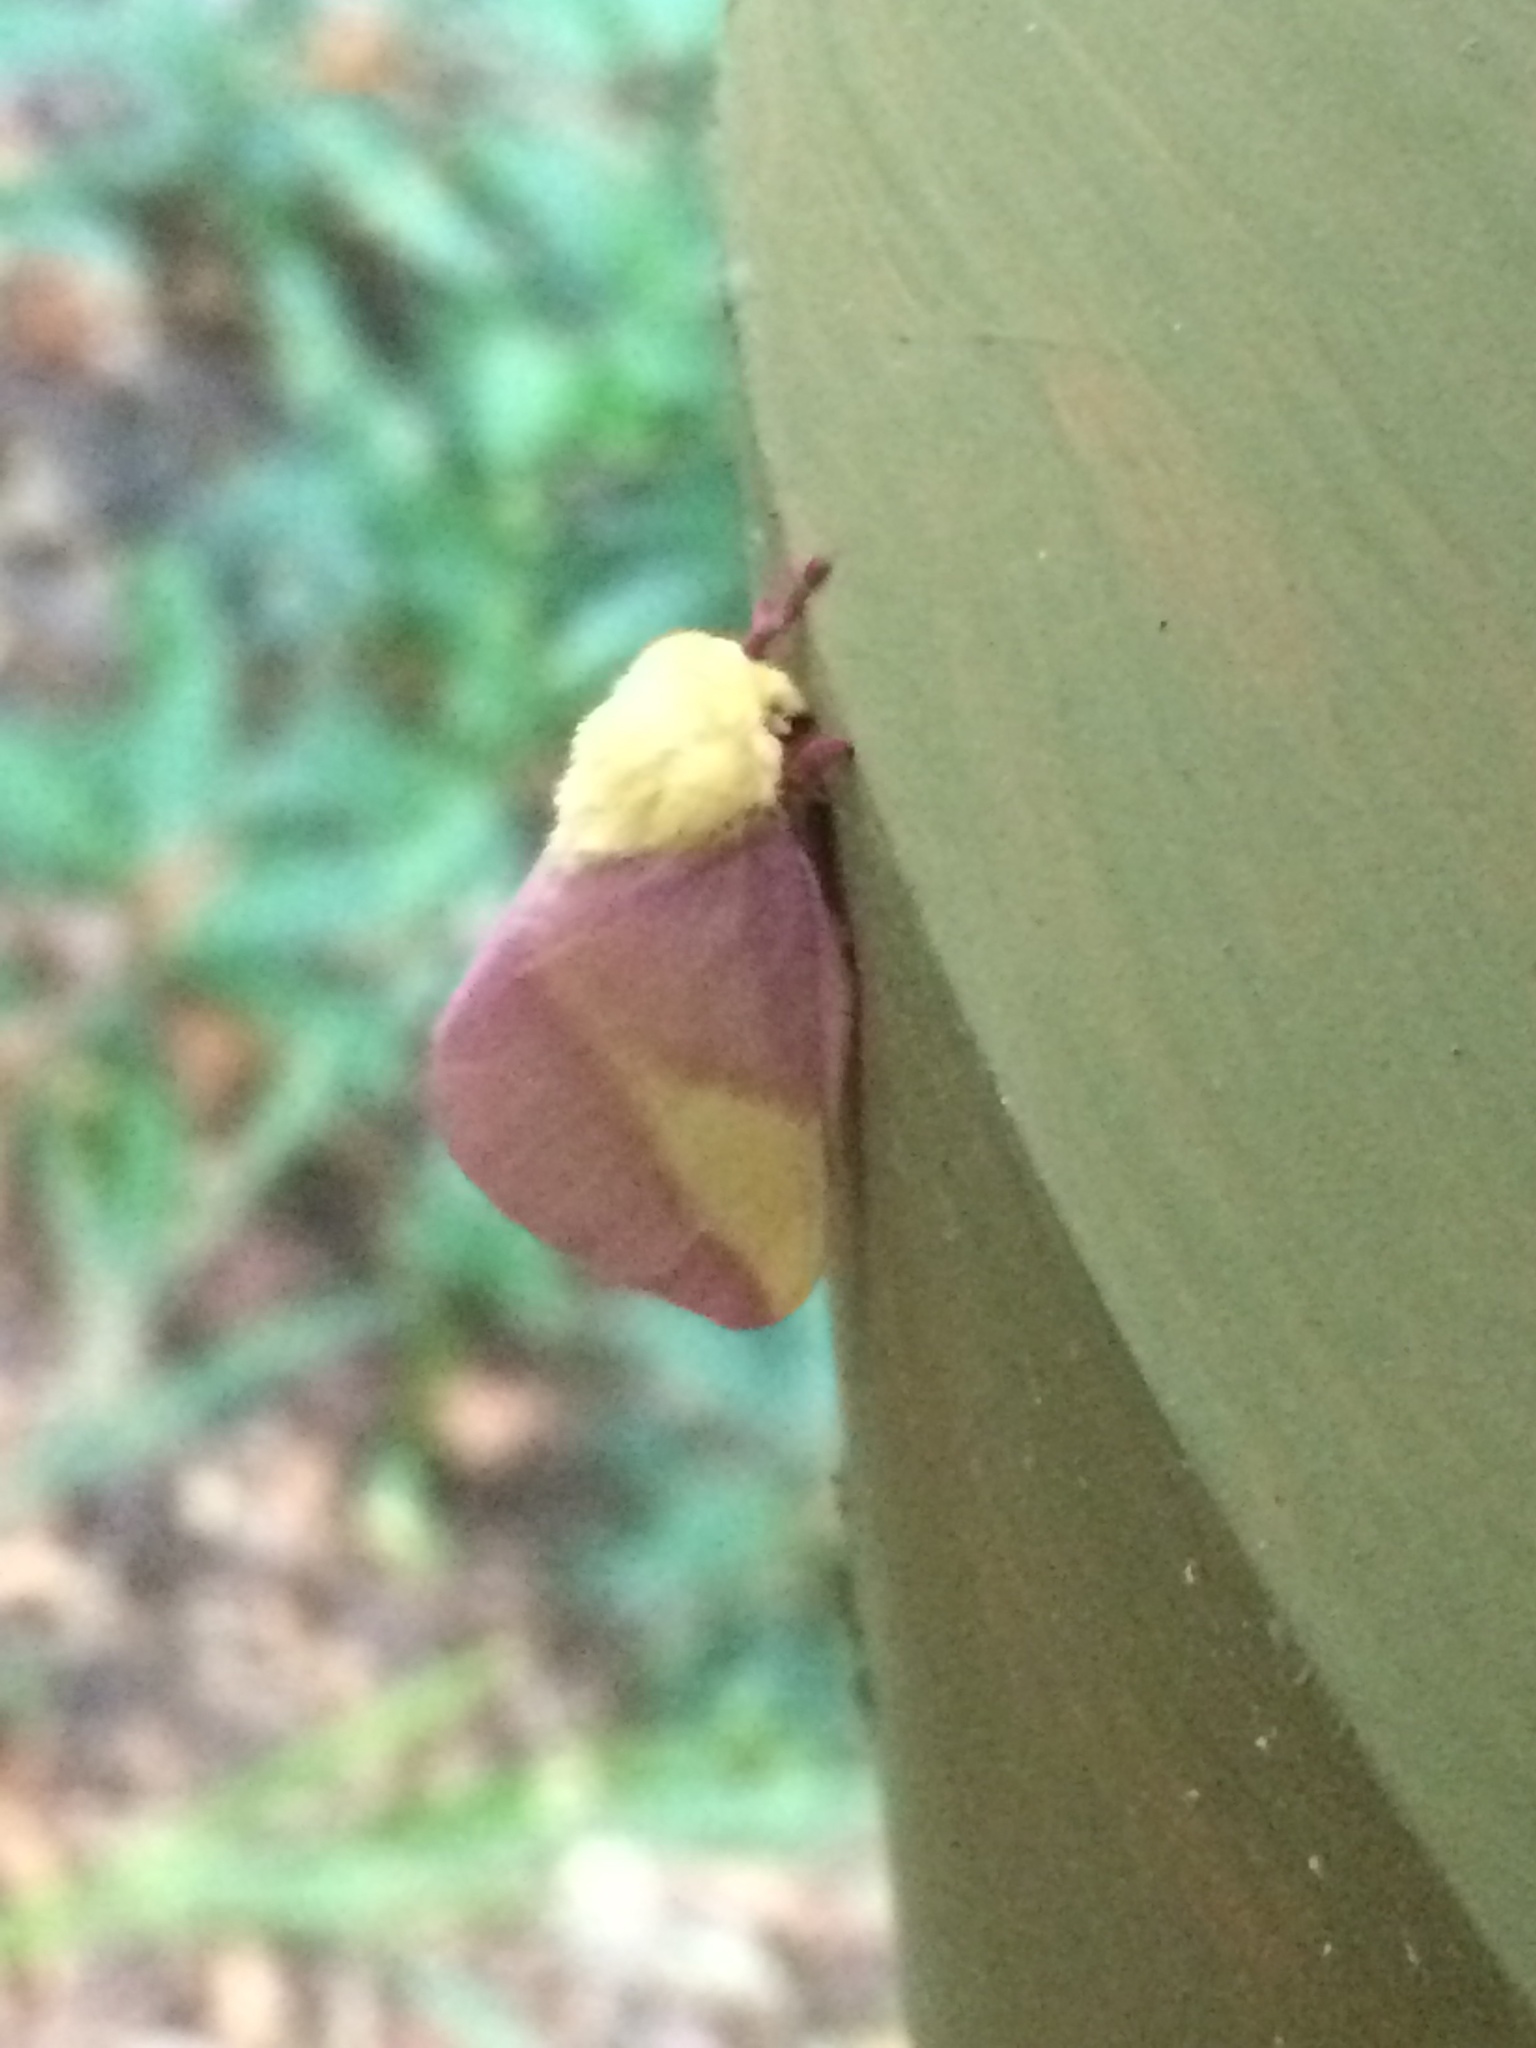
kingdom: Animalia
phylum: Arthropoda
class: Insecta
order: Lepidoptera
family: Saturniidae
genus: Dryocampa
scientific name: Dryocampa rubicunda
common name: Rosy maple moth
